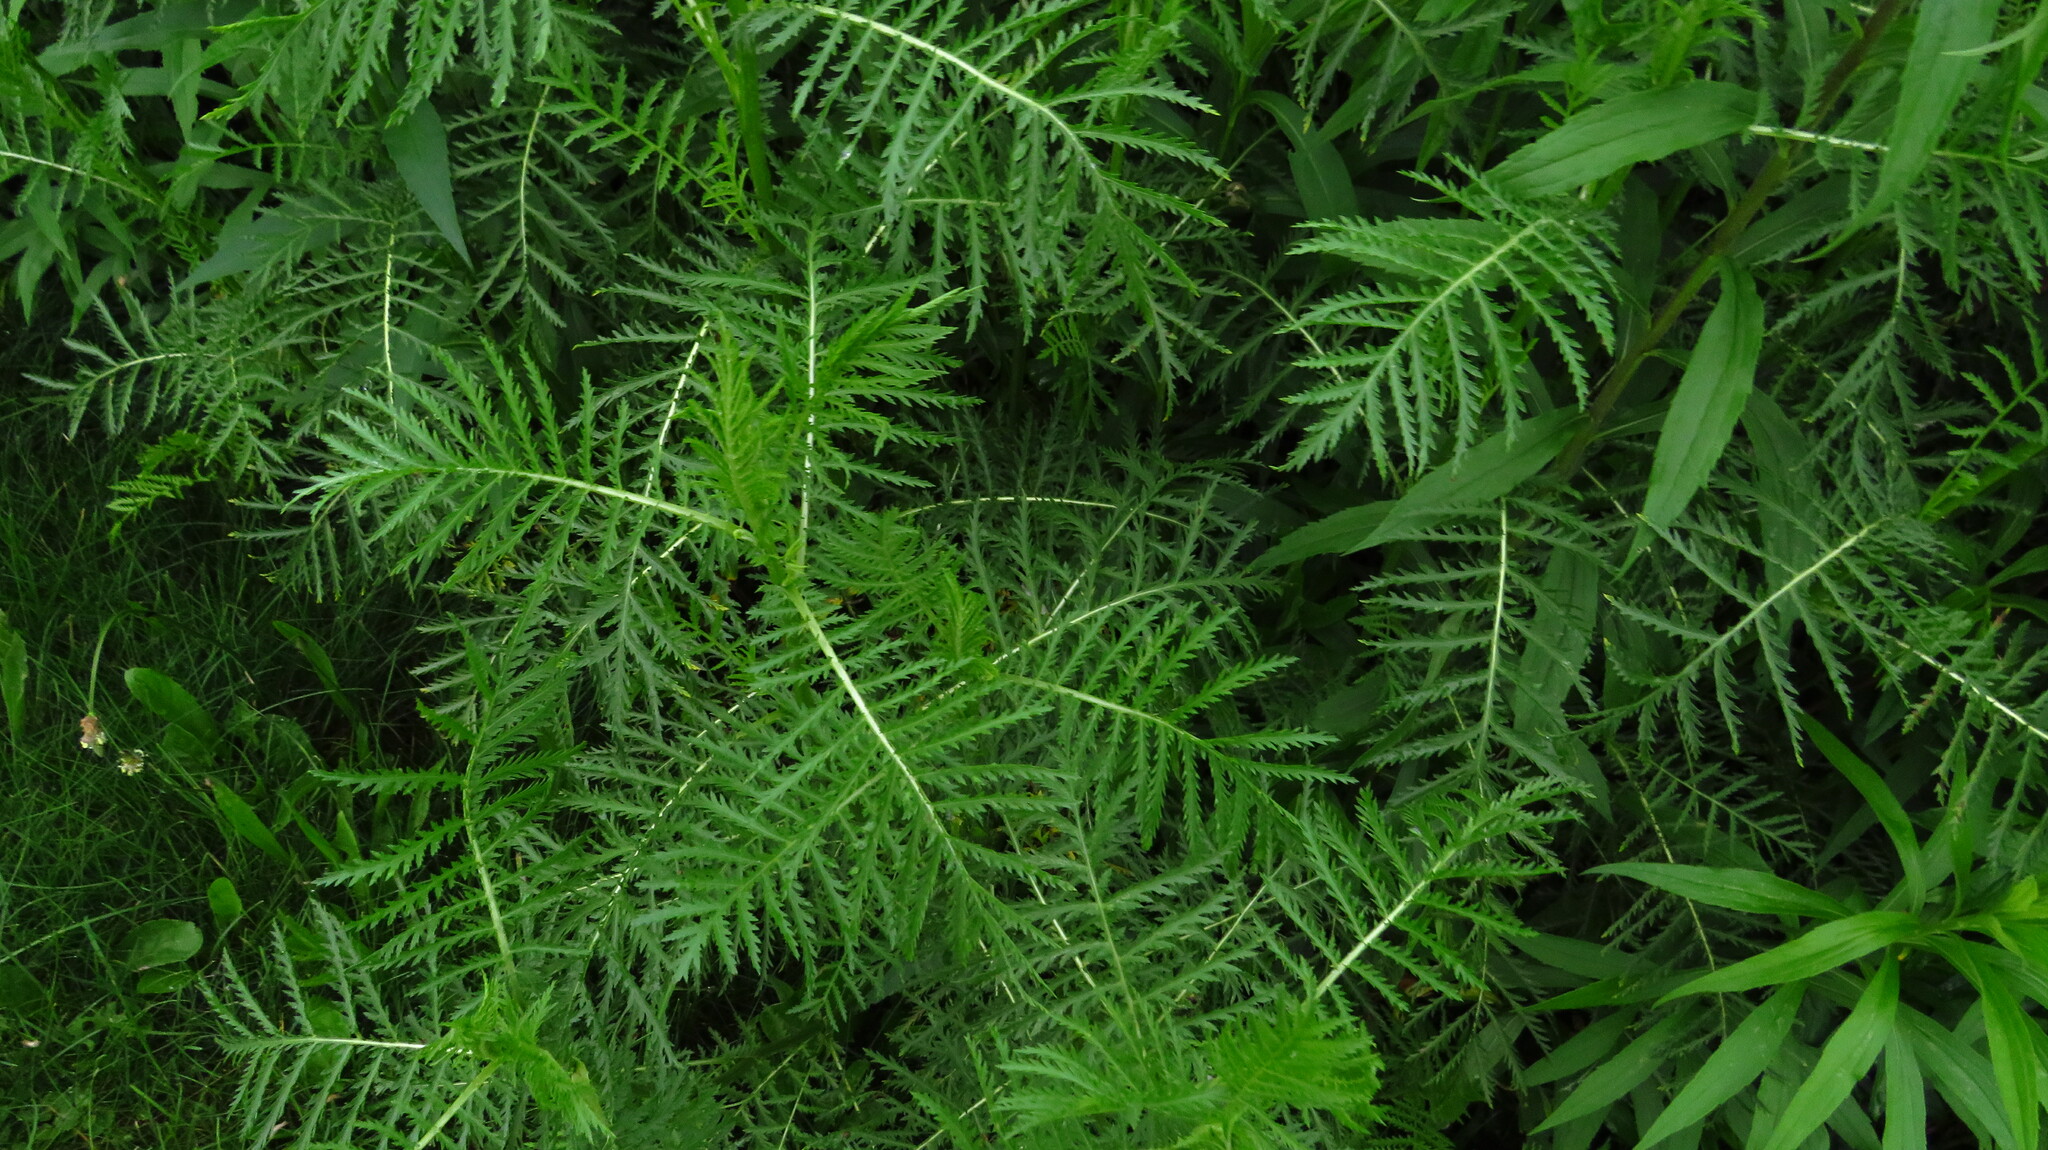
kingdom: Plantae
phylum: Tracheophyta
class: Magnoliopsida
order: Asterales
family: Asteraceae
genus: Tanacetum
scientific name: Tanacetum vulgare
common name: Common tansy
